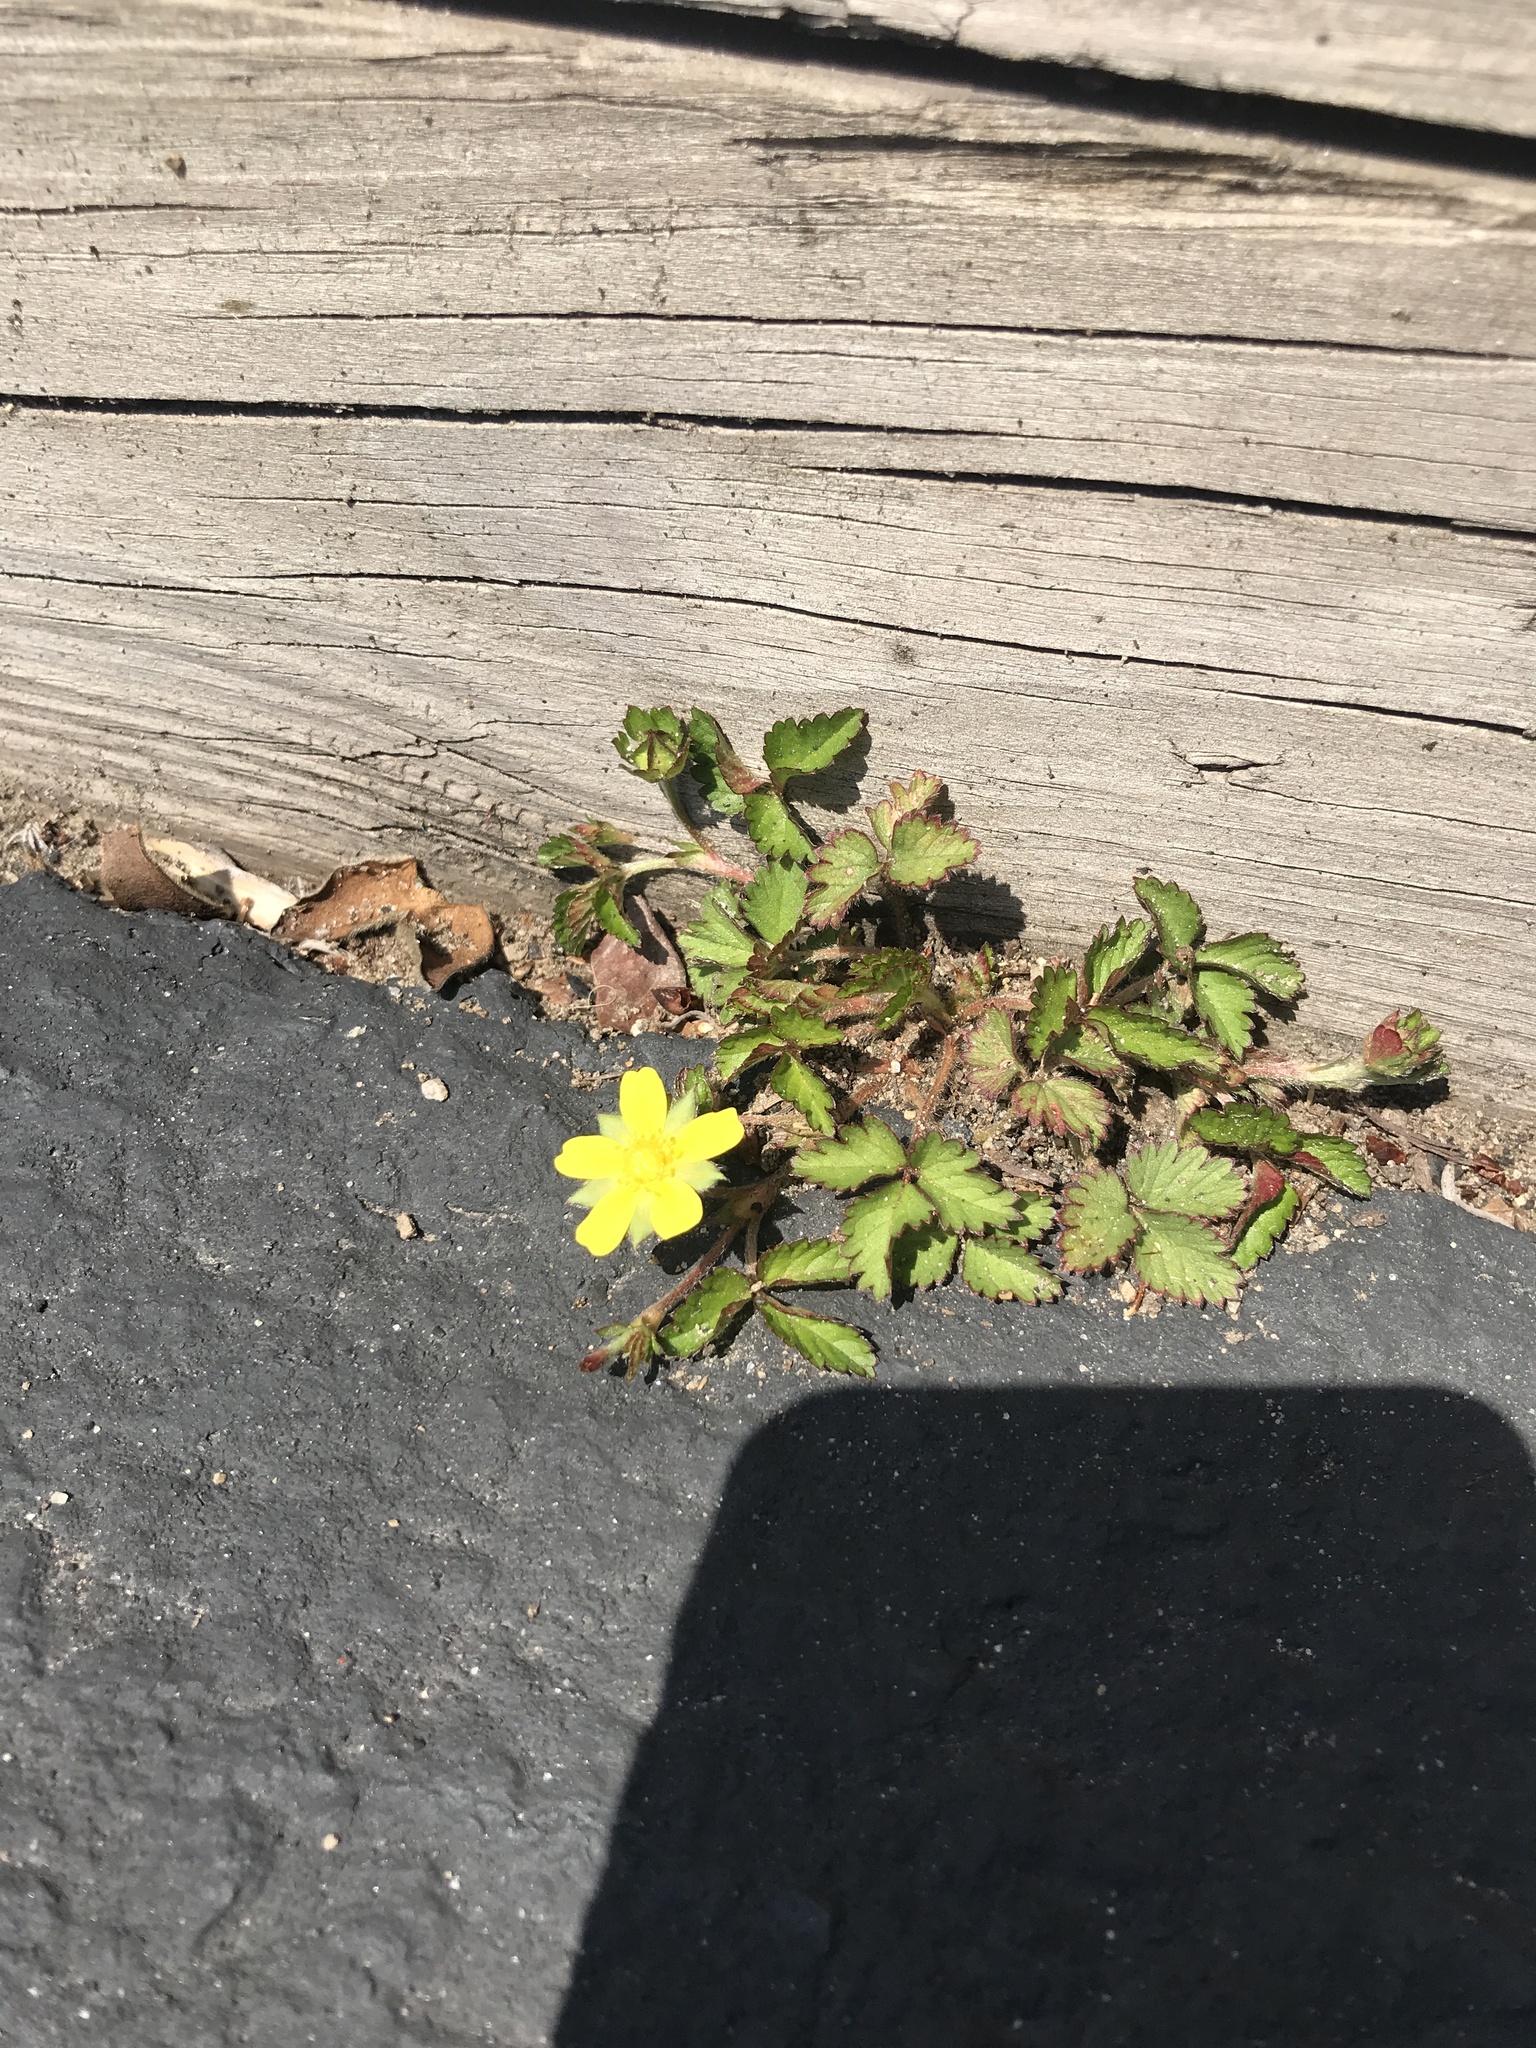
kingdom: Plantae
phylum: Tracheophyta
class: Magnoliopsida
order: Rosales
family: Rosaceae
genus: Potentilla
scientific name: Potentilla indica
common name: Yellow-flowered strawberry
